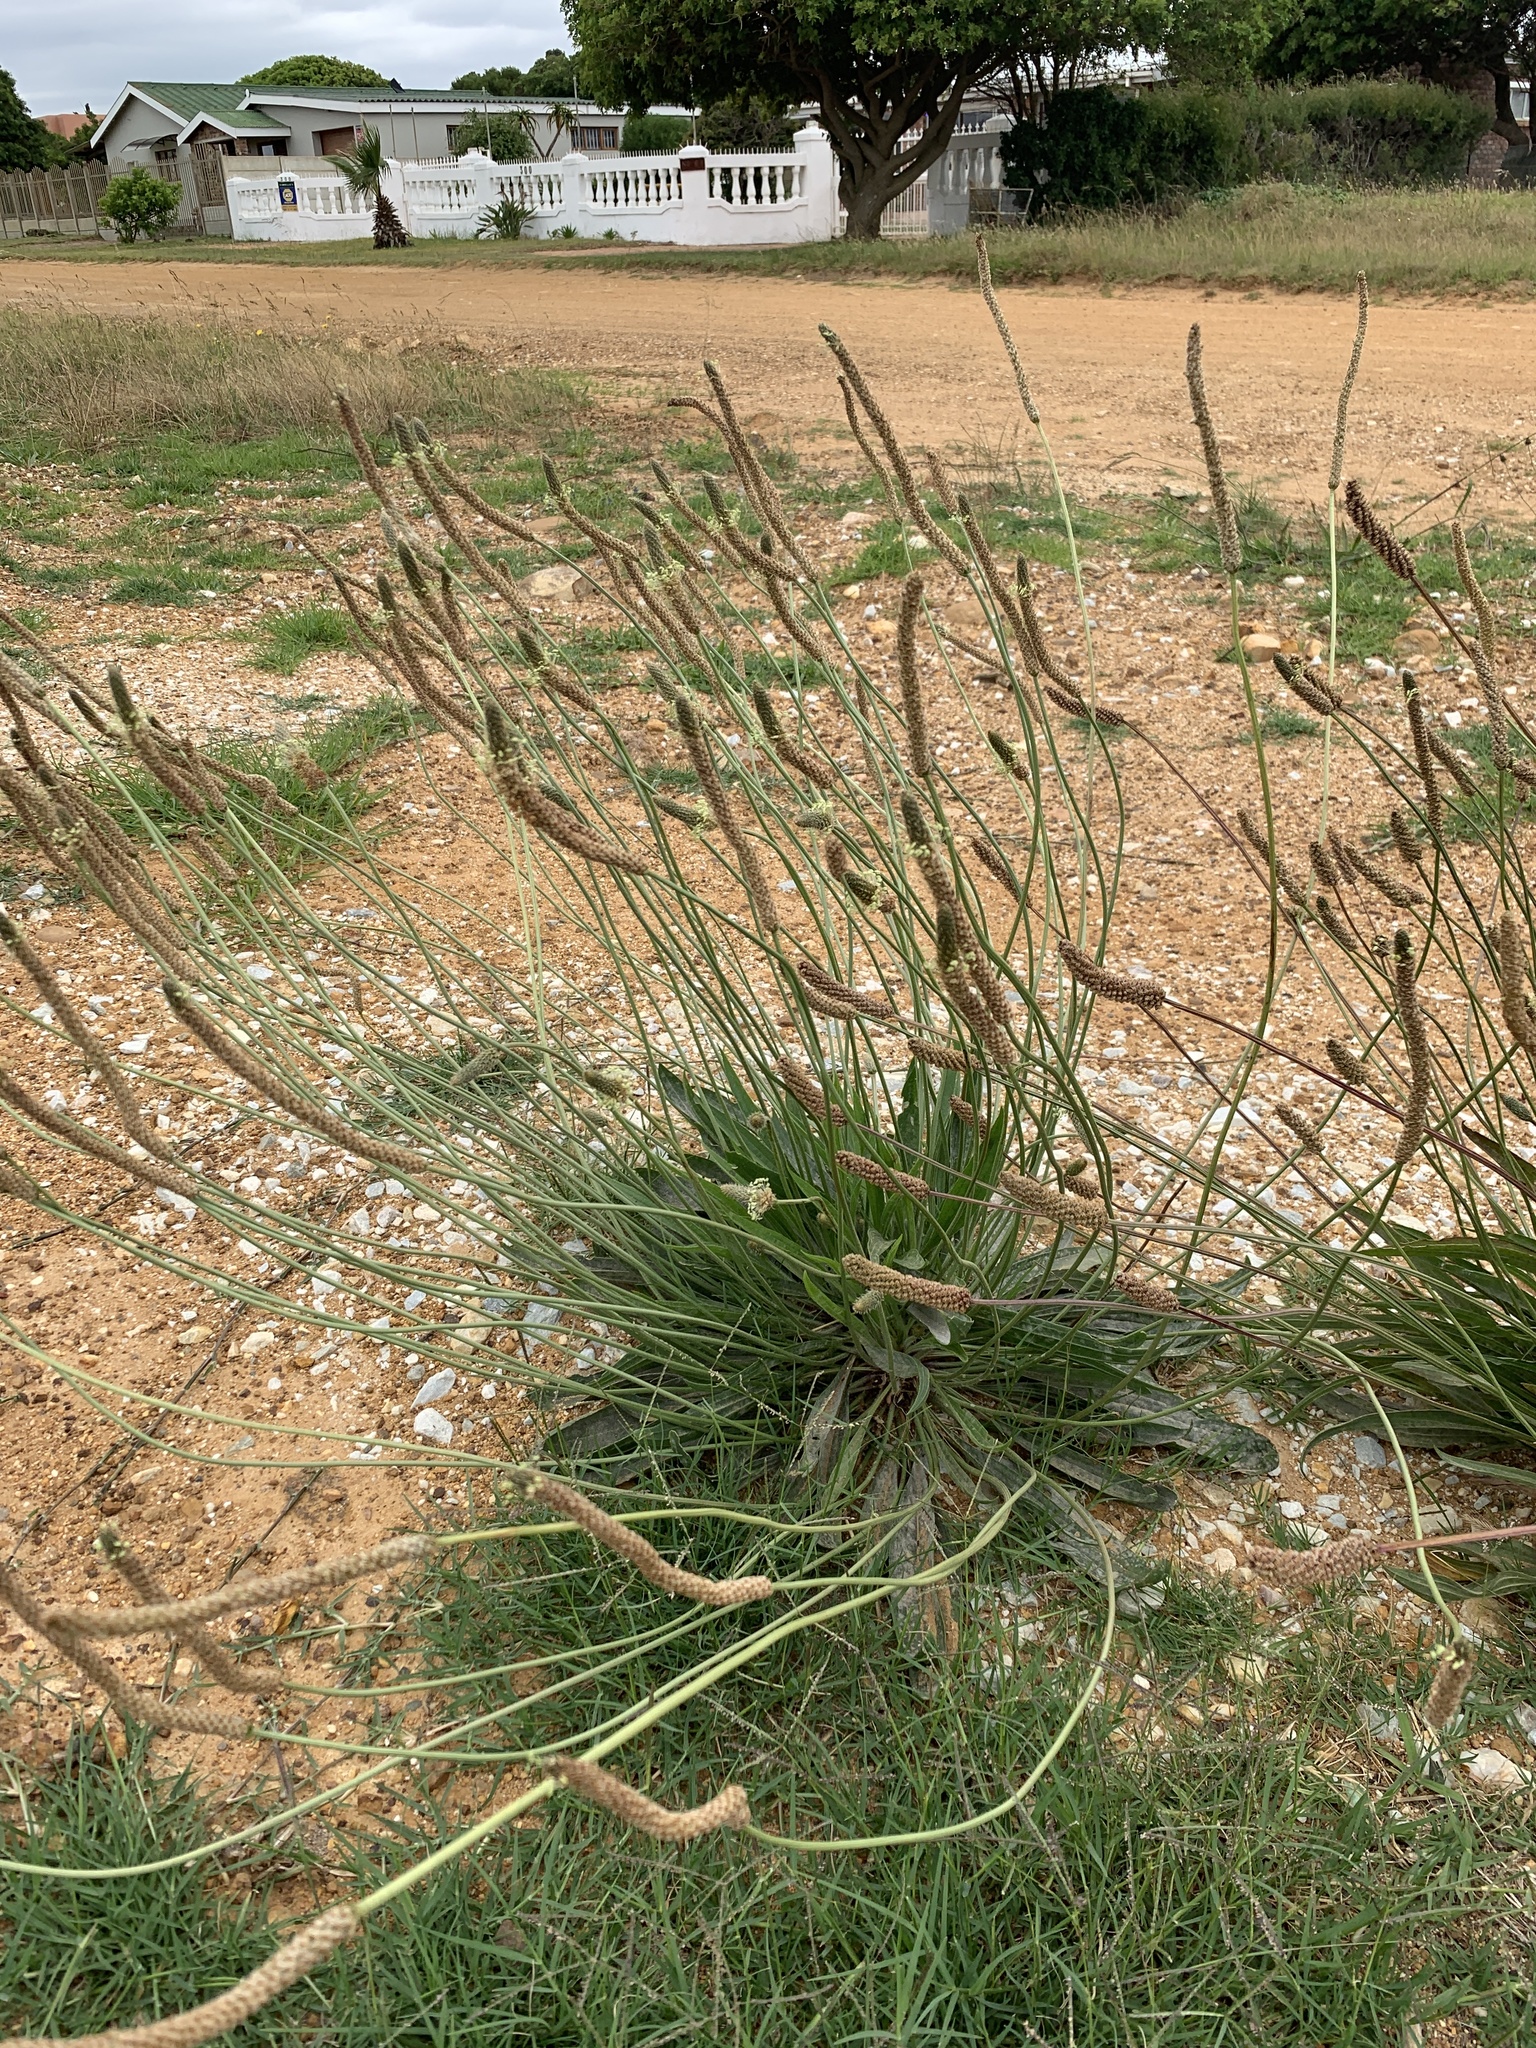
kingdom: Plantae
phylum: Tracheophyta
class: Magnoliopsida
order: Lamiales
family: Plantaginaceae
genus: Plantago
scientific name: Plantago lanceolata
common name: Ribwort plantain
